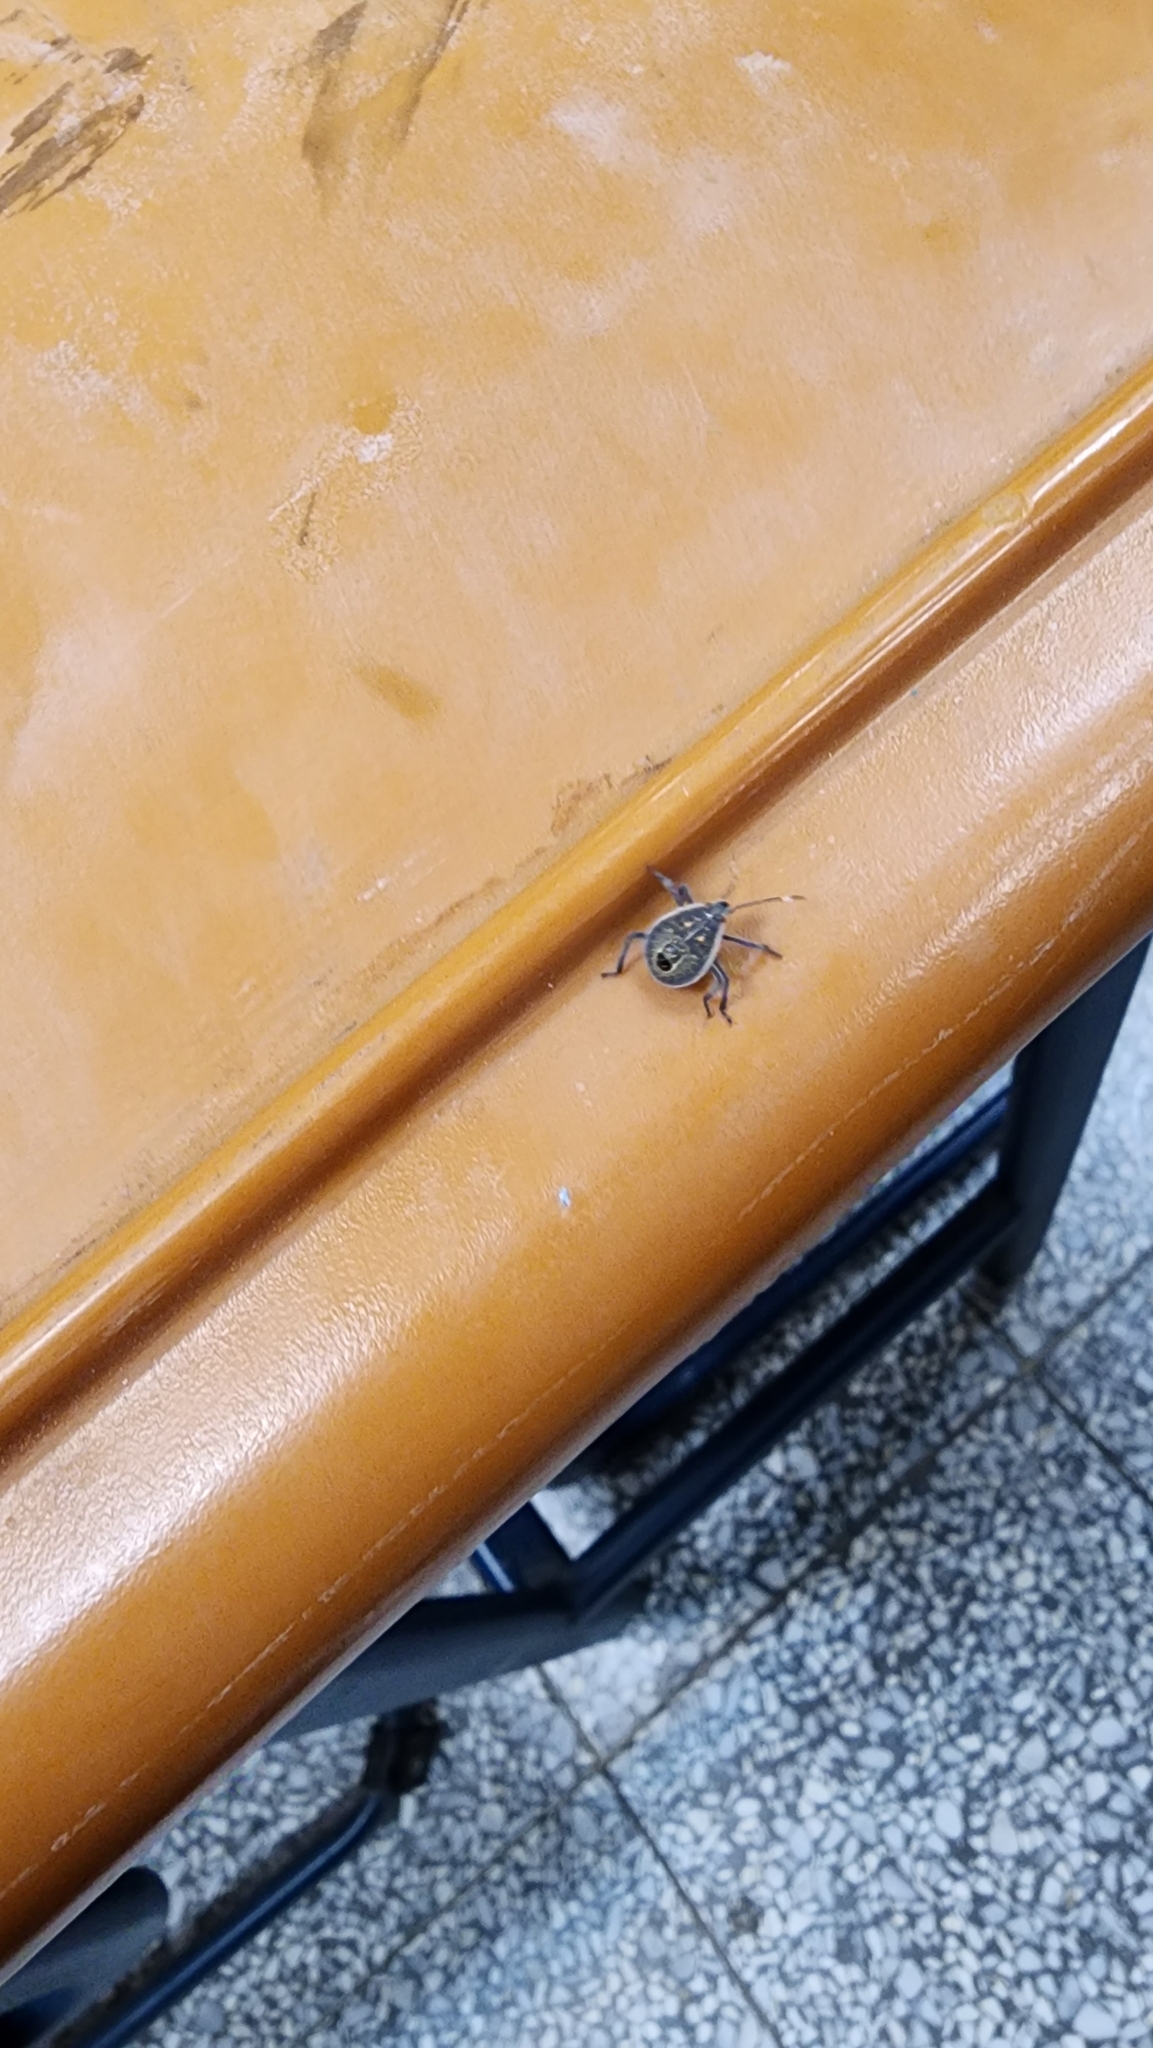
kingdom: Animalia
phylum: Arthropoda
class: Insecta
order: Hemiptera
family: Pentatomidae
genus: Erthesina
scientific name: Erthesina fullo
